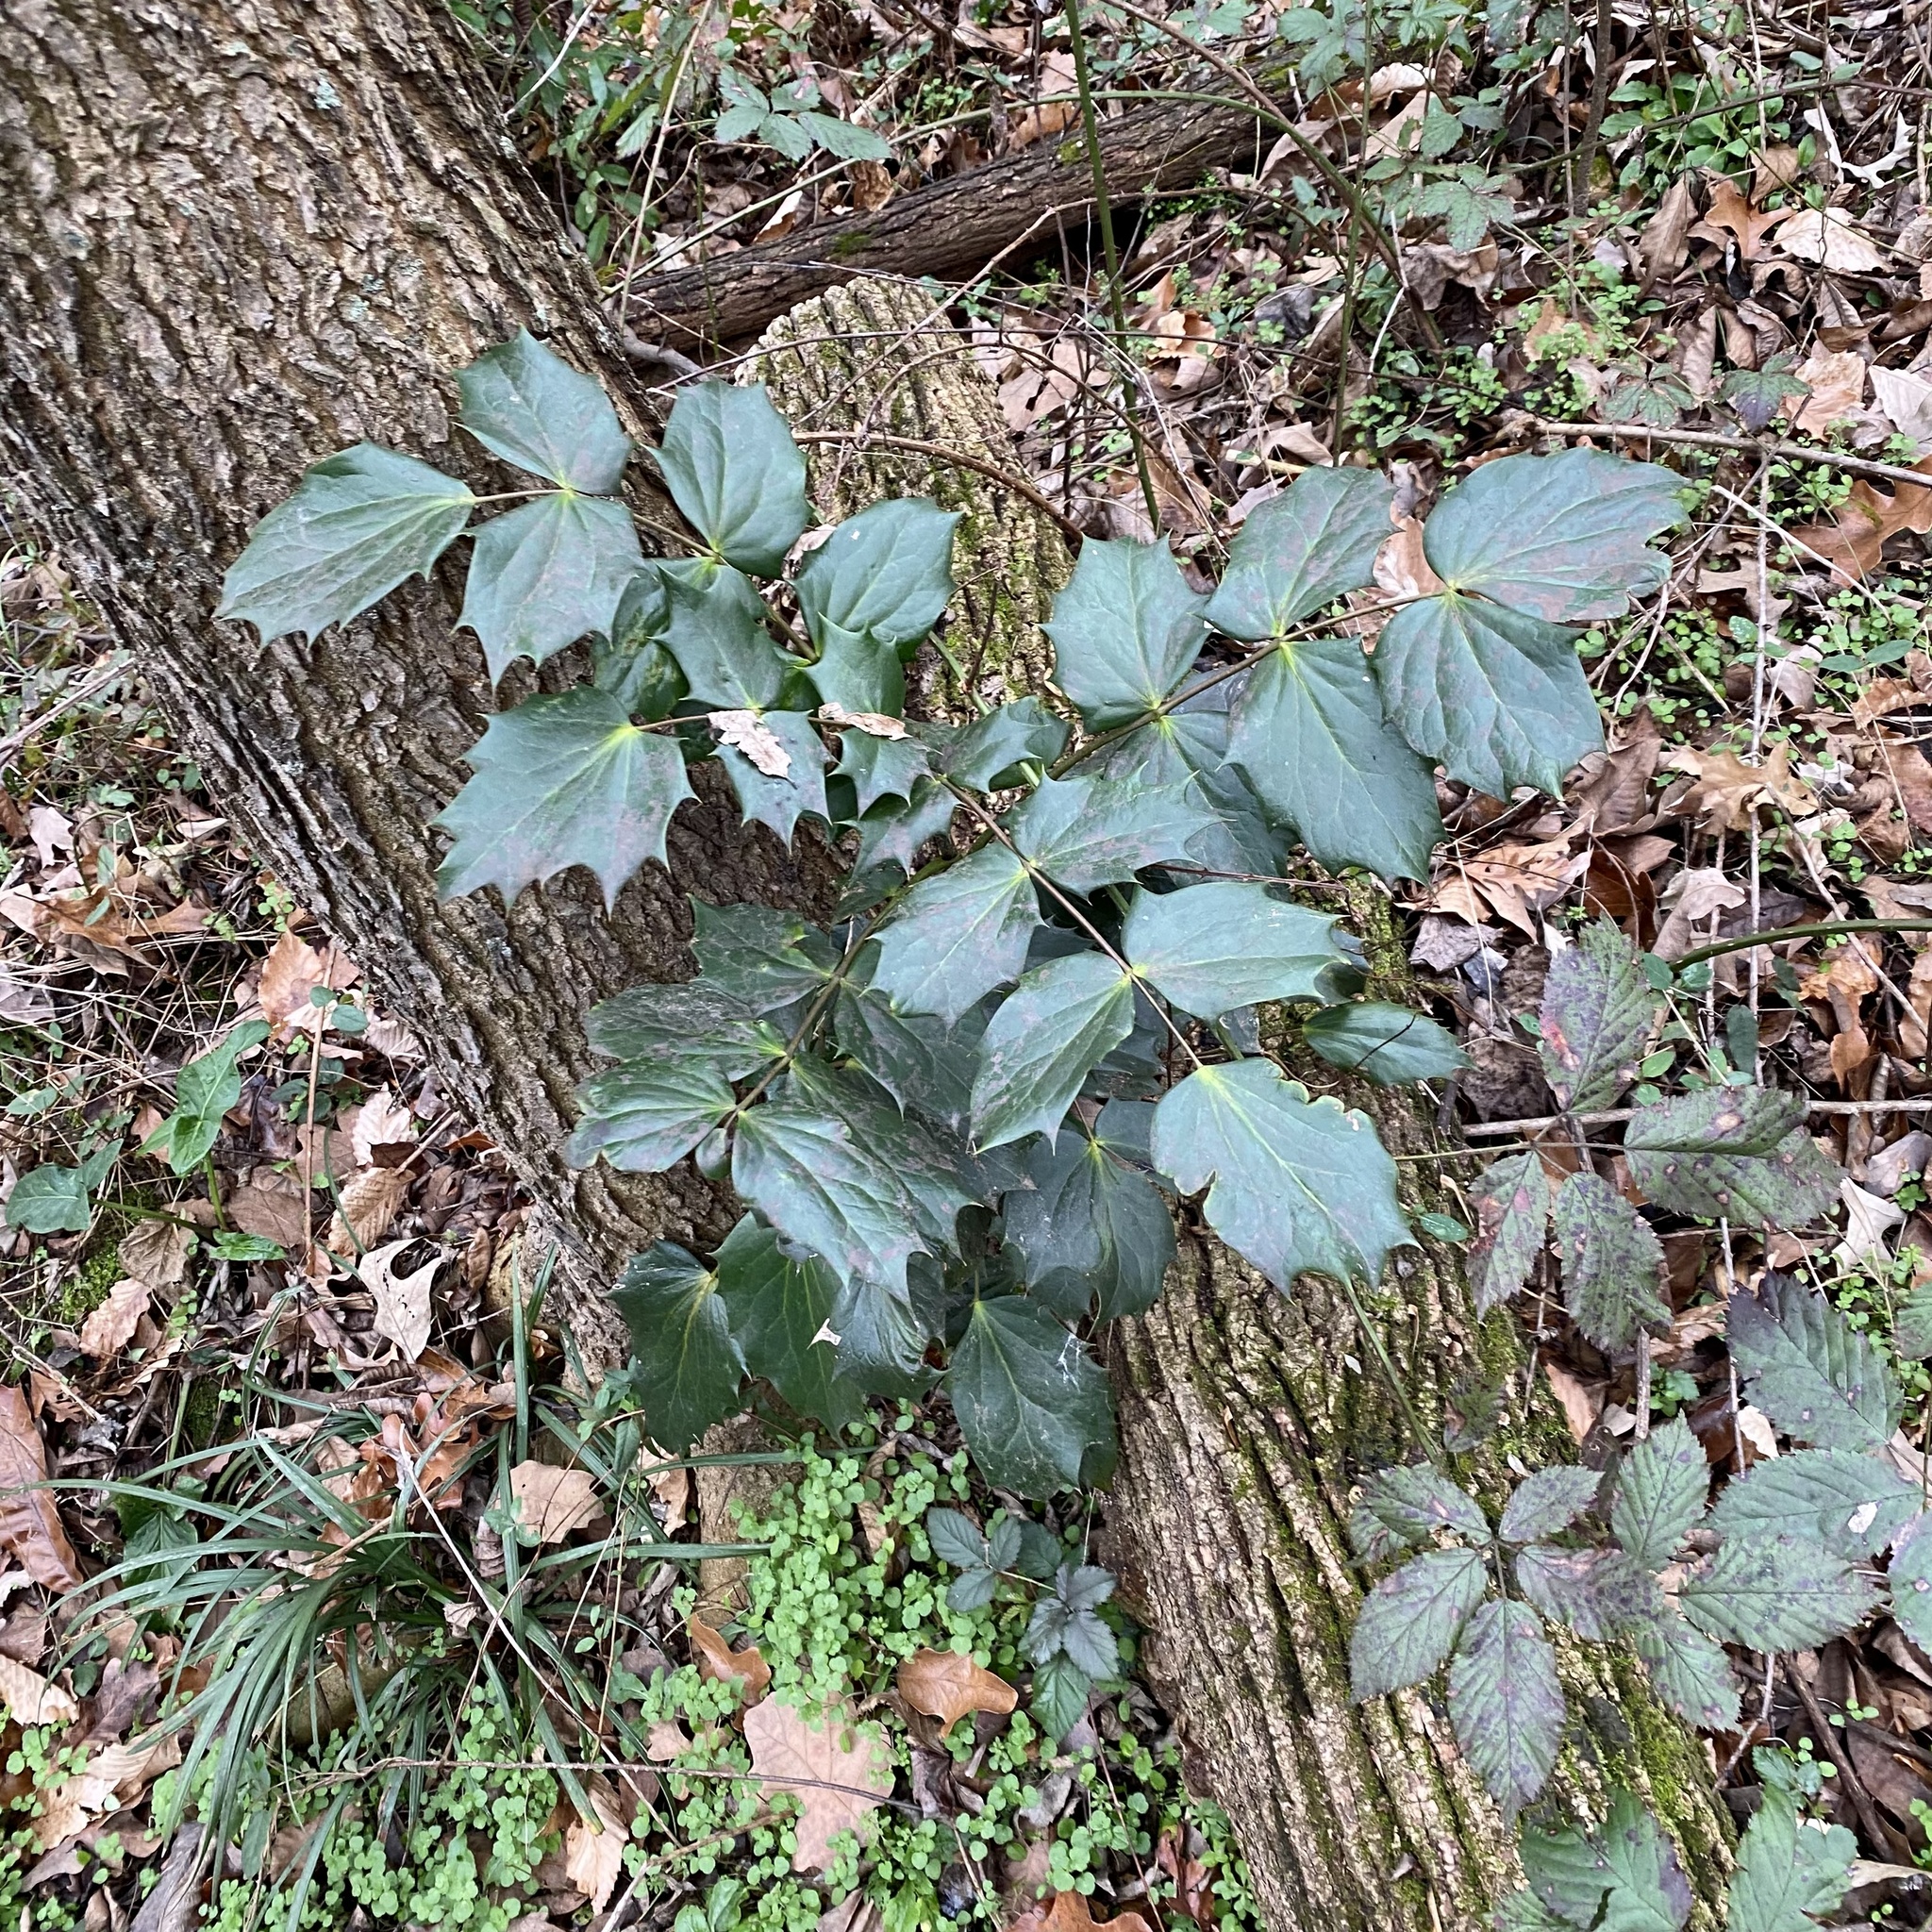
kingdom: Plantae
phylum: Tracheophyta
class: Magnoliopsida
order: Ranunculales
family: Berberidaceae
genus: Mahonia
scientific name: Mahonia bealei
